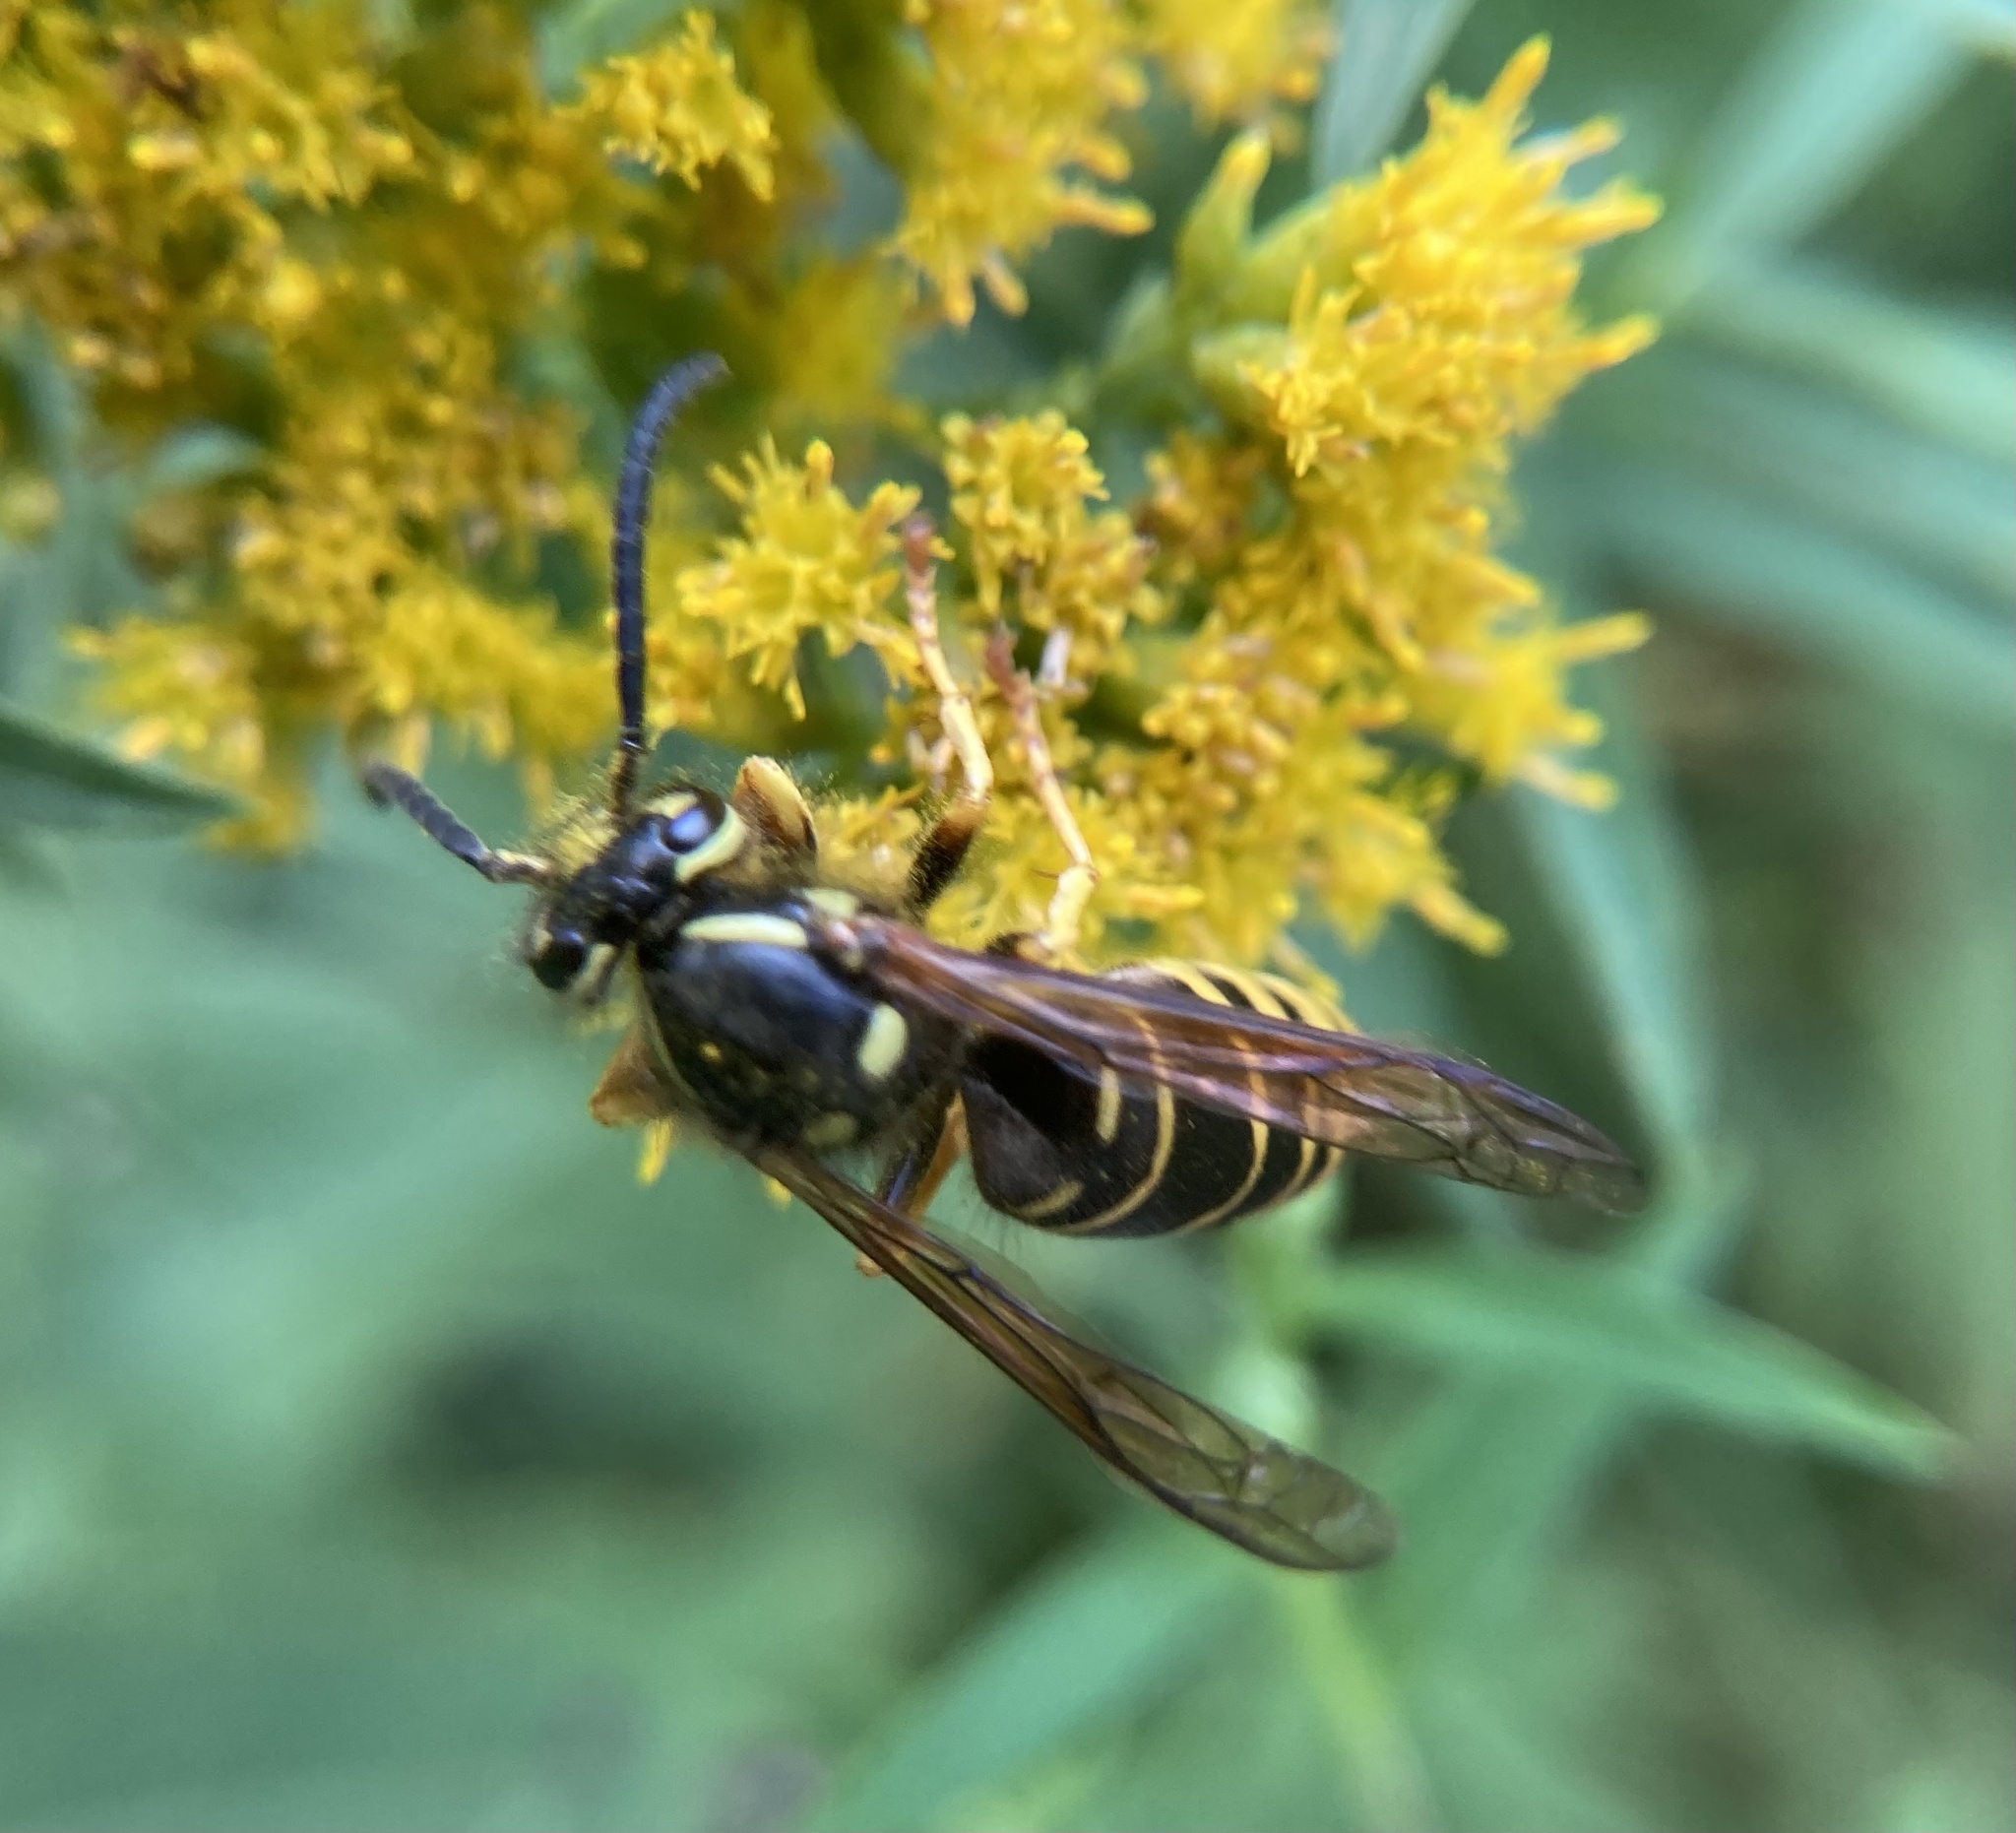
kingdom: Animalia
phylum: Arthropoda
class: Insecta
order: Hymenoptera
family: Vespidae
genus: Vespula
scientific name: Vespula vidua
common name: Widow yellowjacket
